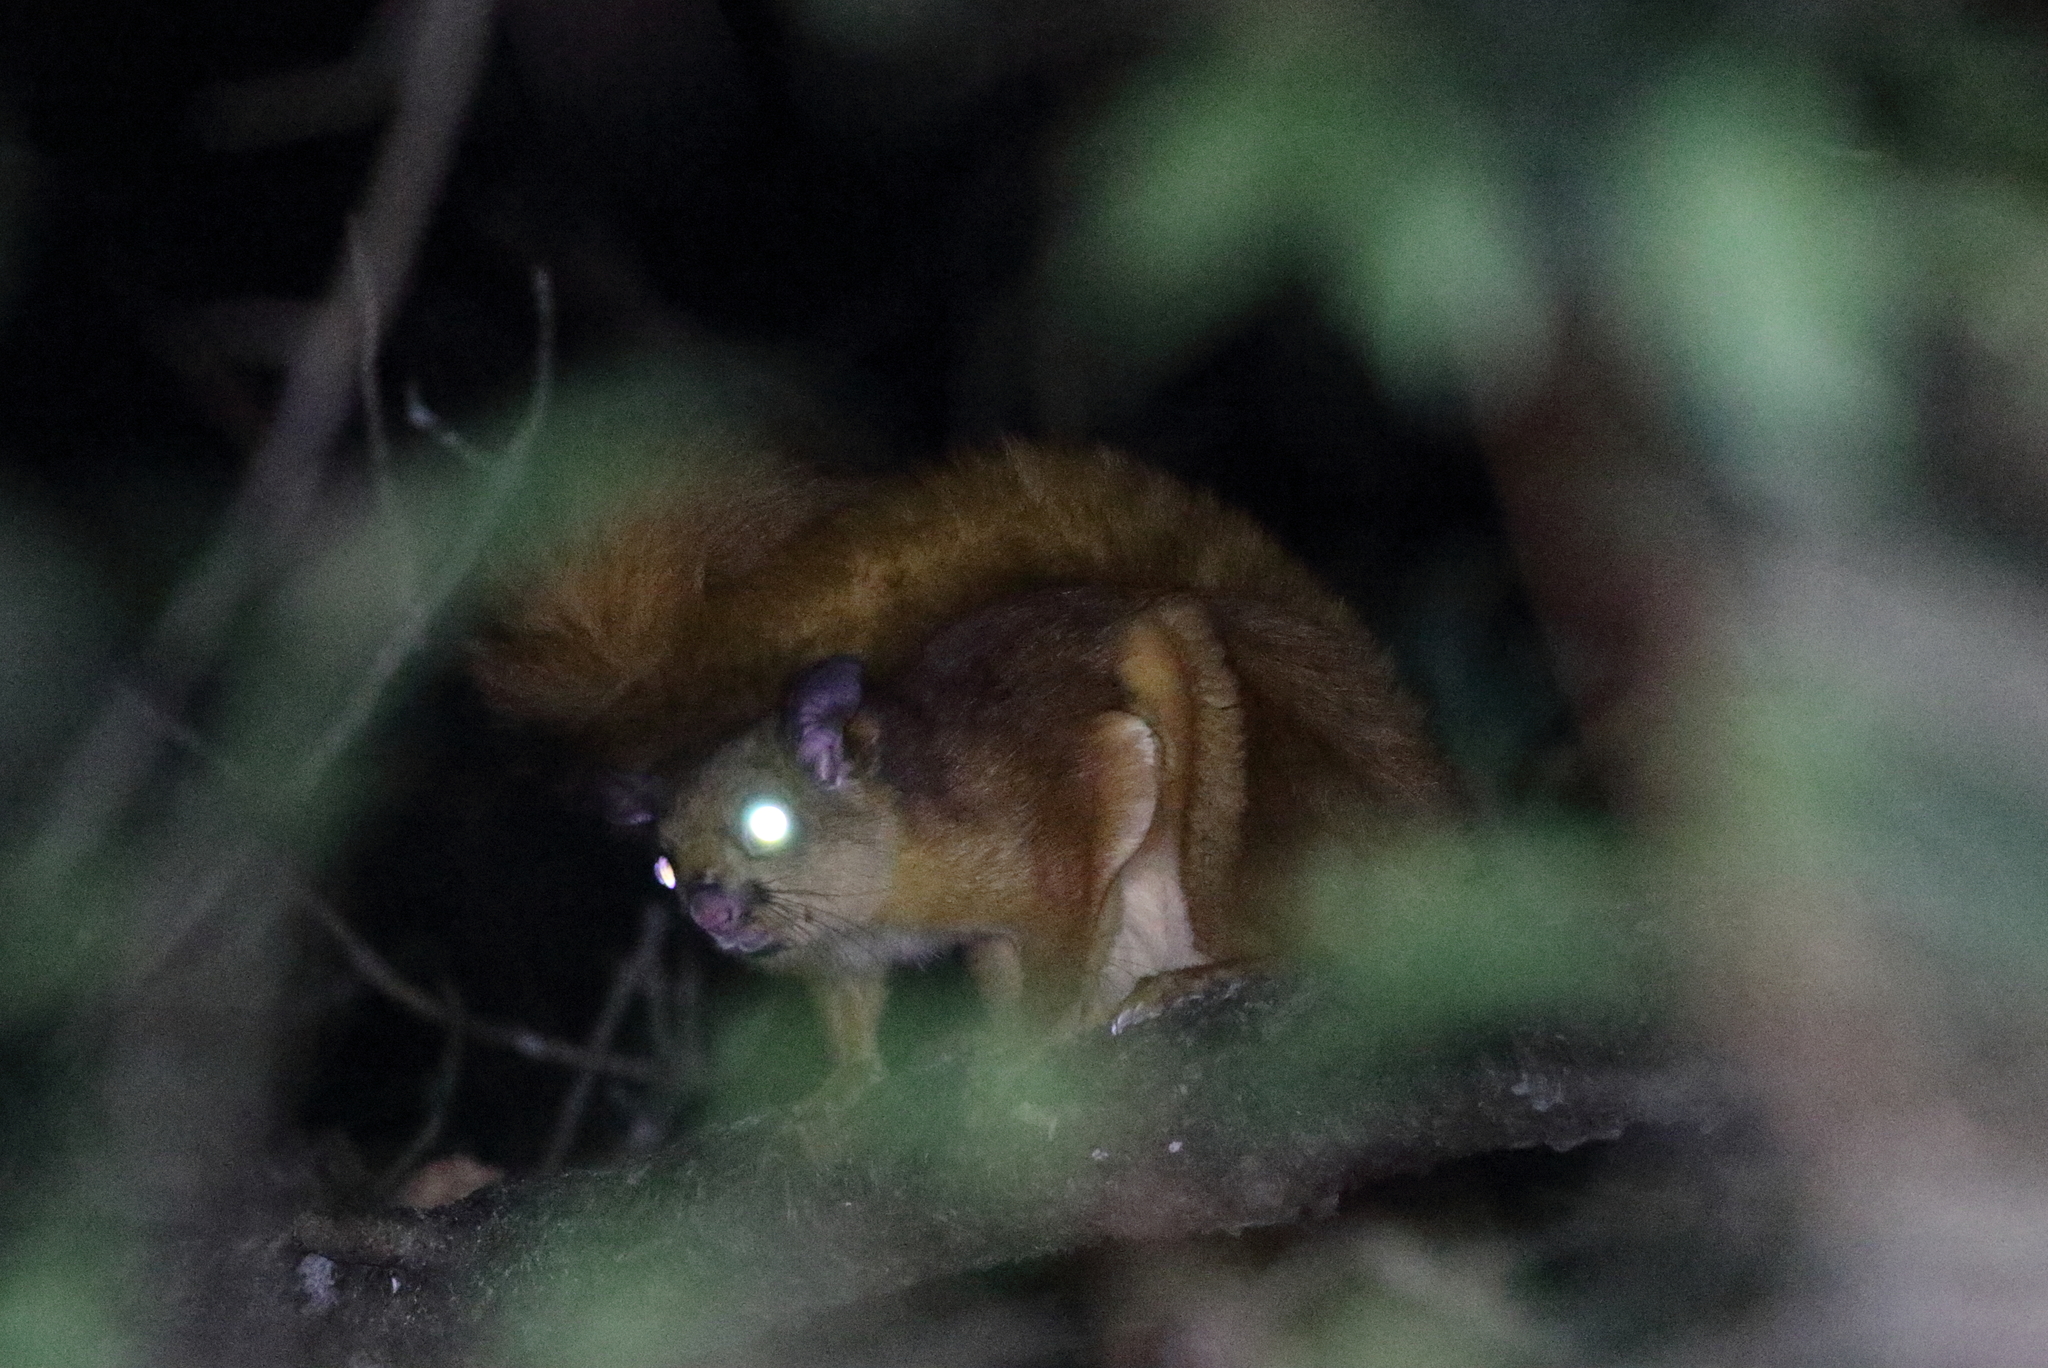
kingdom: Animalia
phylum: Chordata
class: Mammalia
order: Rodentia
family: Sciuridae
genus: Petaurista
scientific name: Petaurista petaurista
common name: Red giant flying squirrel
